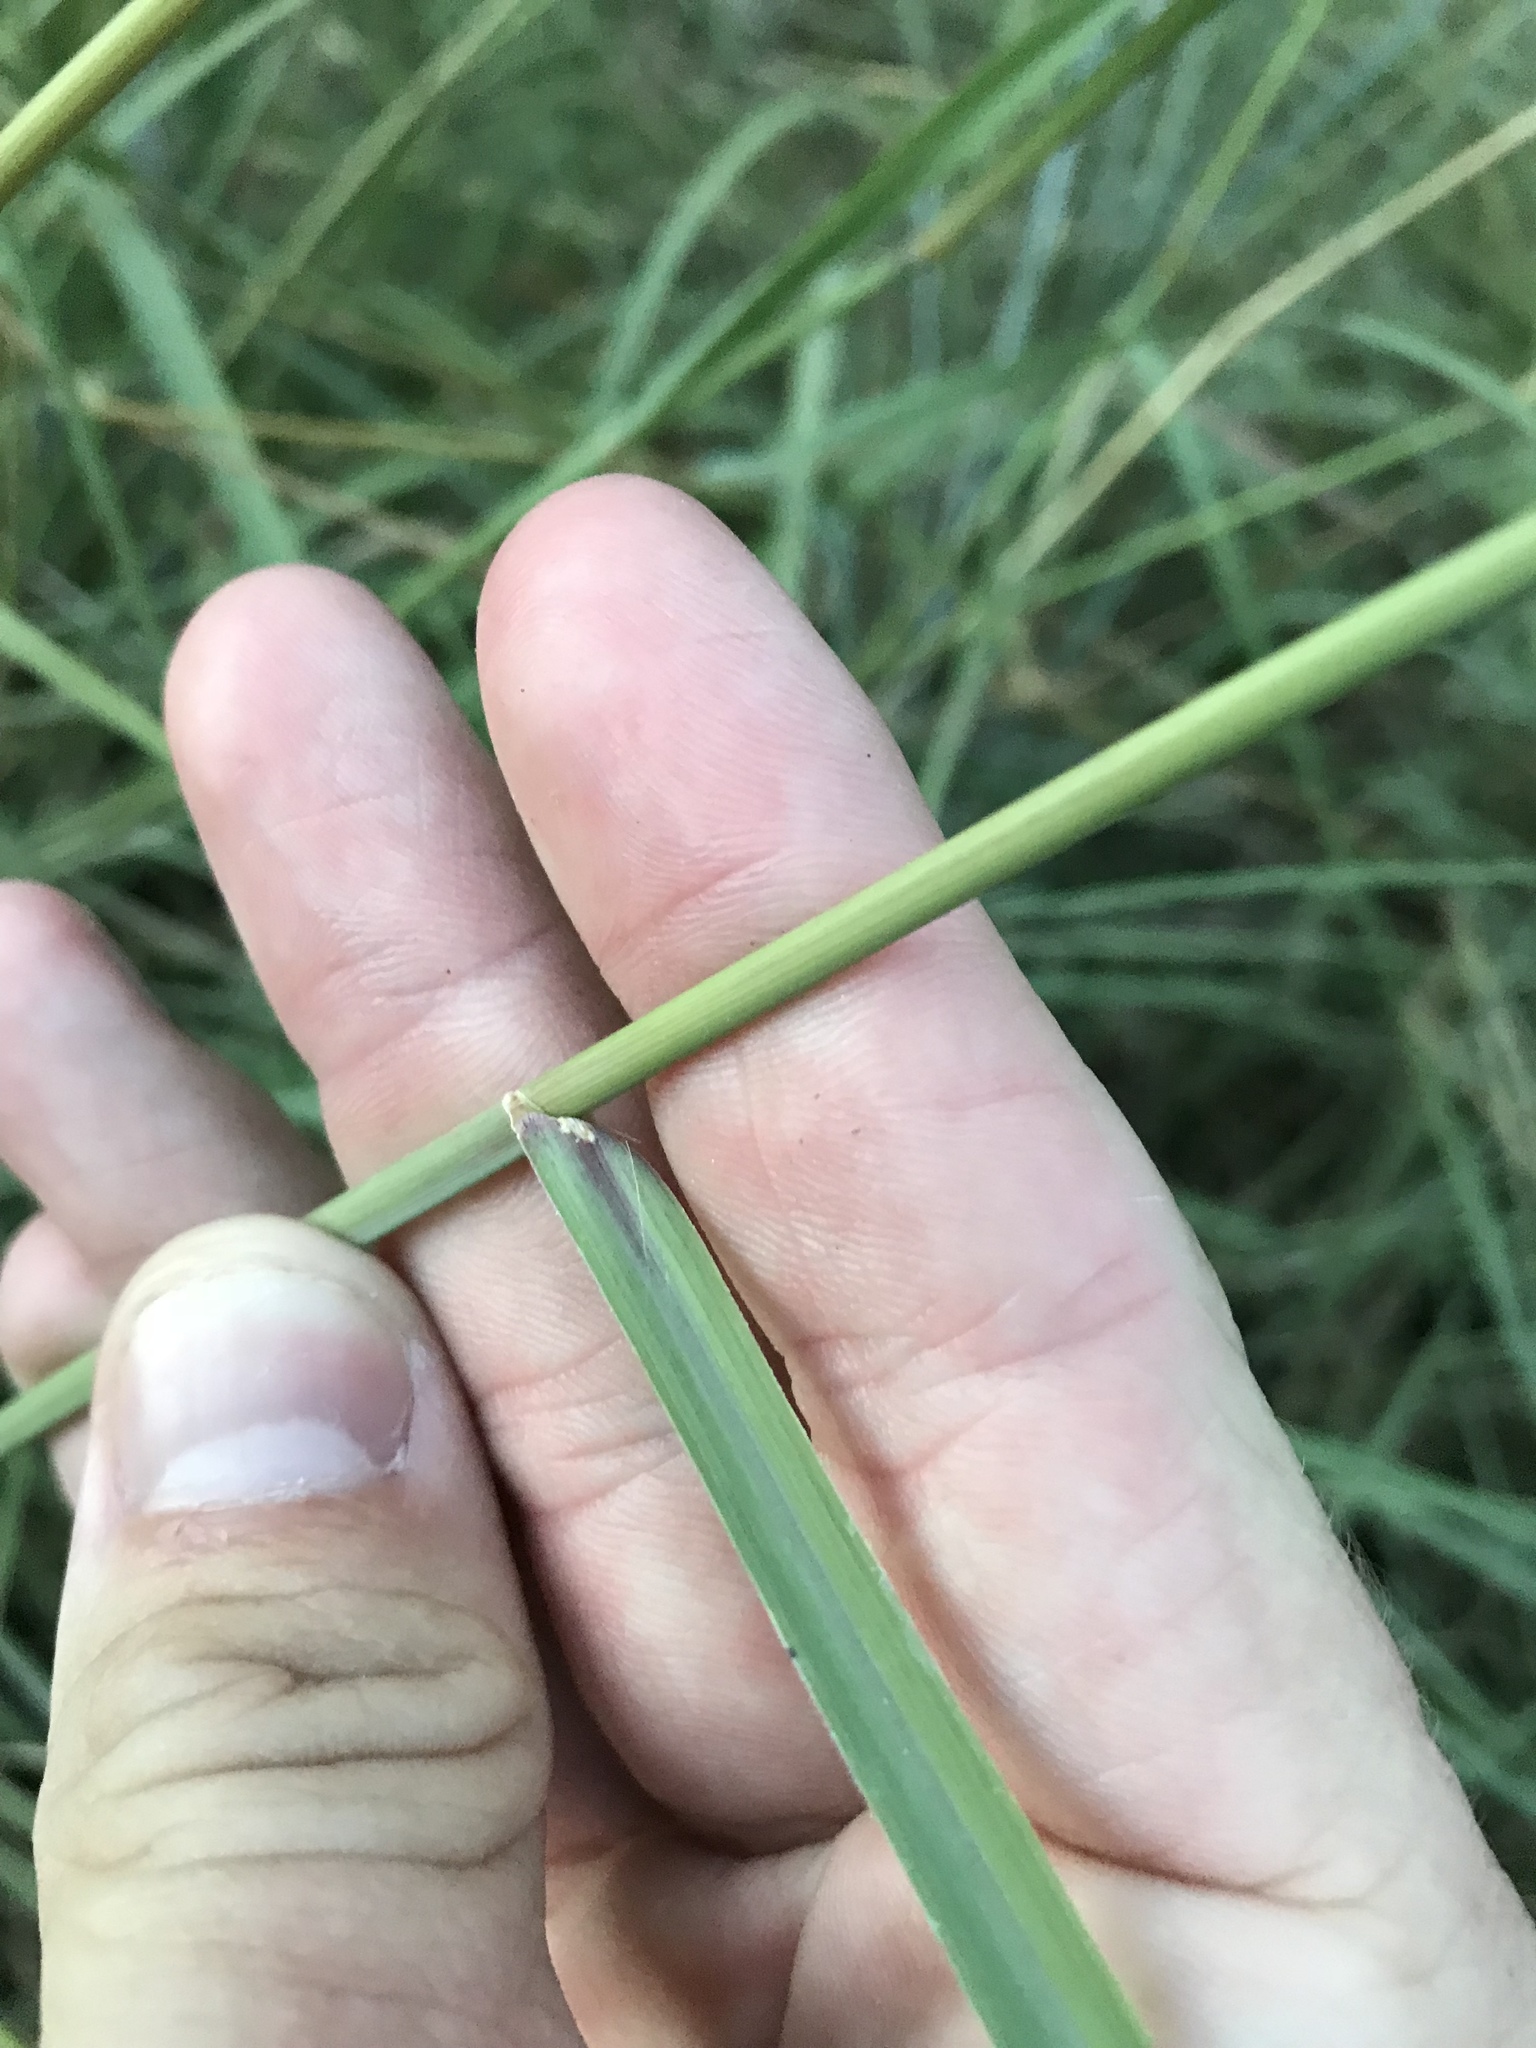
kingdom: Plantae
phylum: Tracheophyta
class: Liliopsida
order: Poales
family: Poaceae
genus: Stapfochloa
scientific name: Stapfochloa canterae
